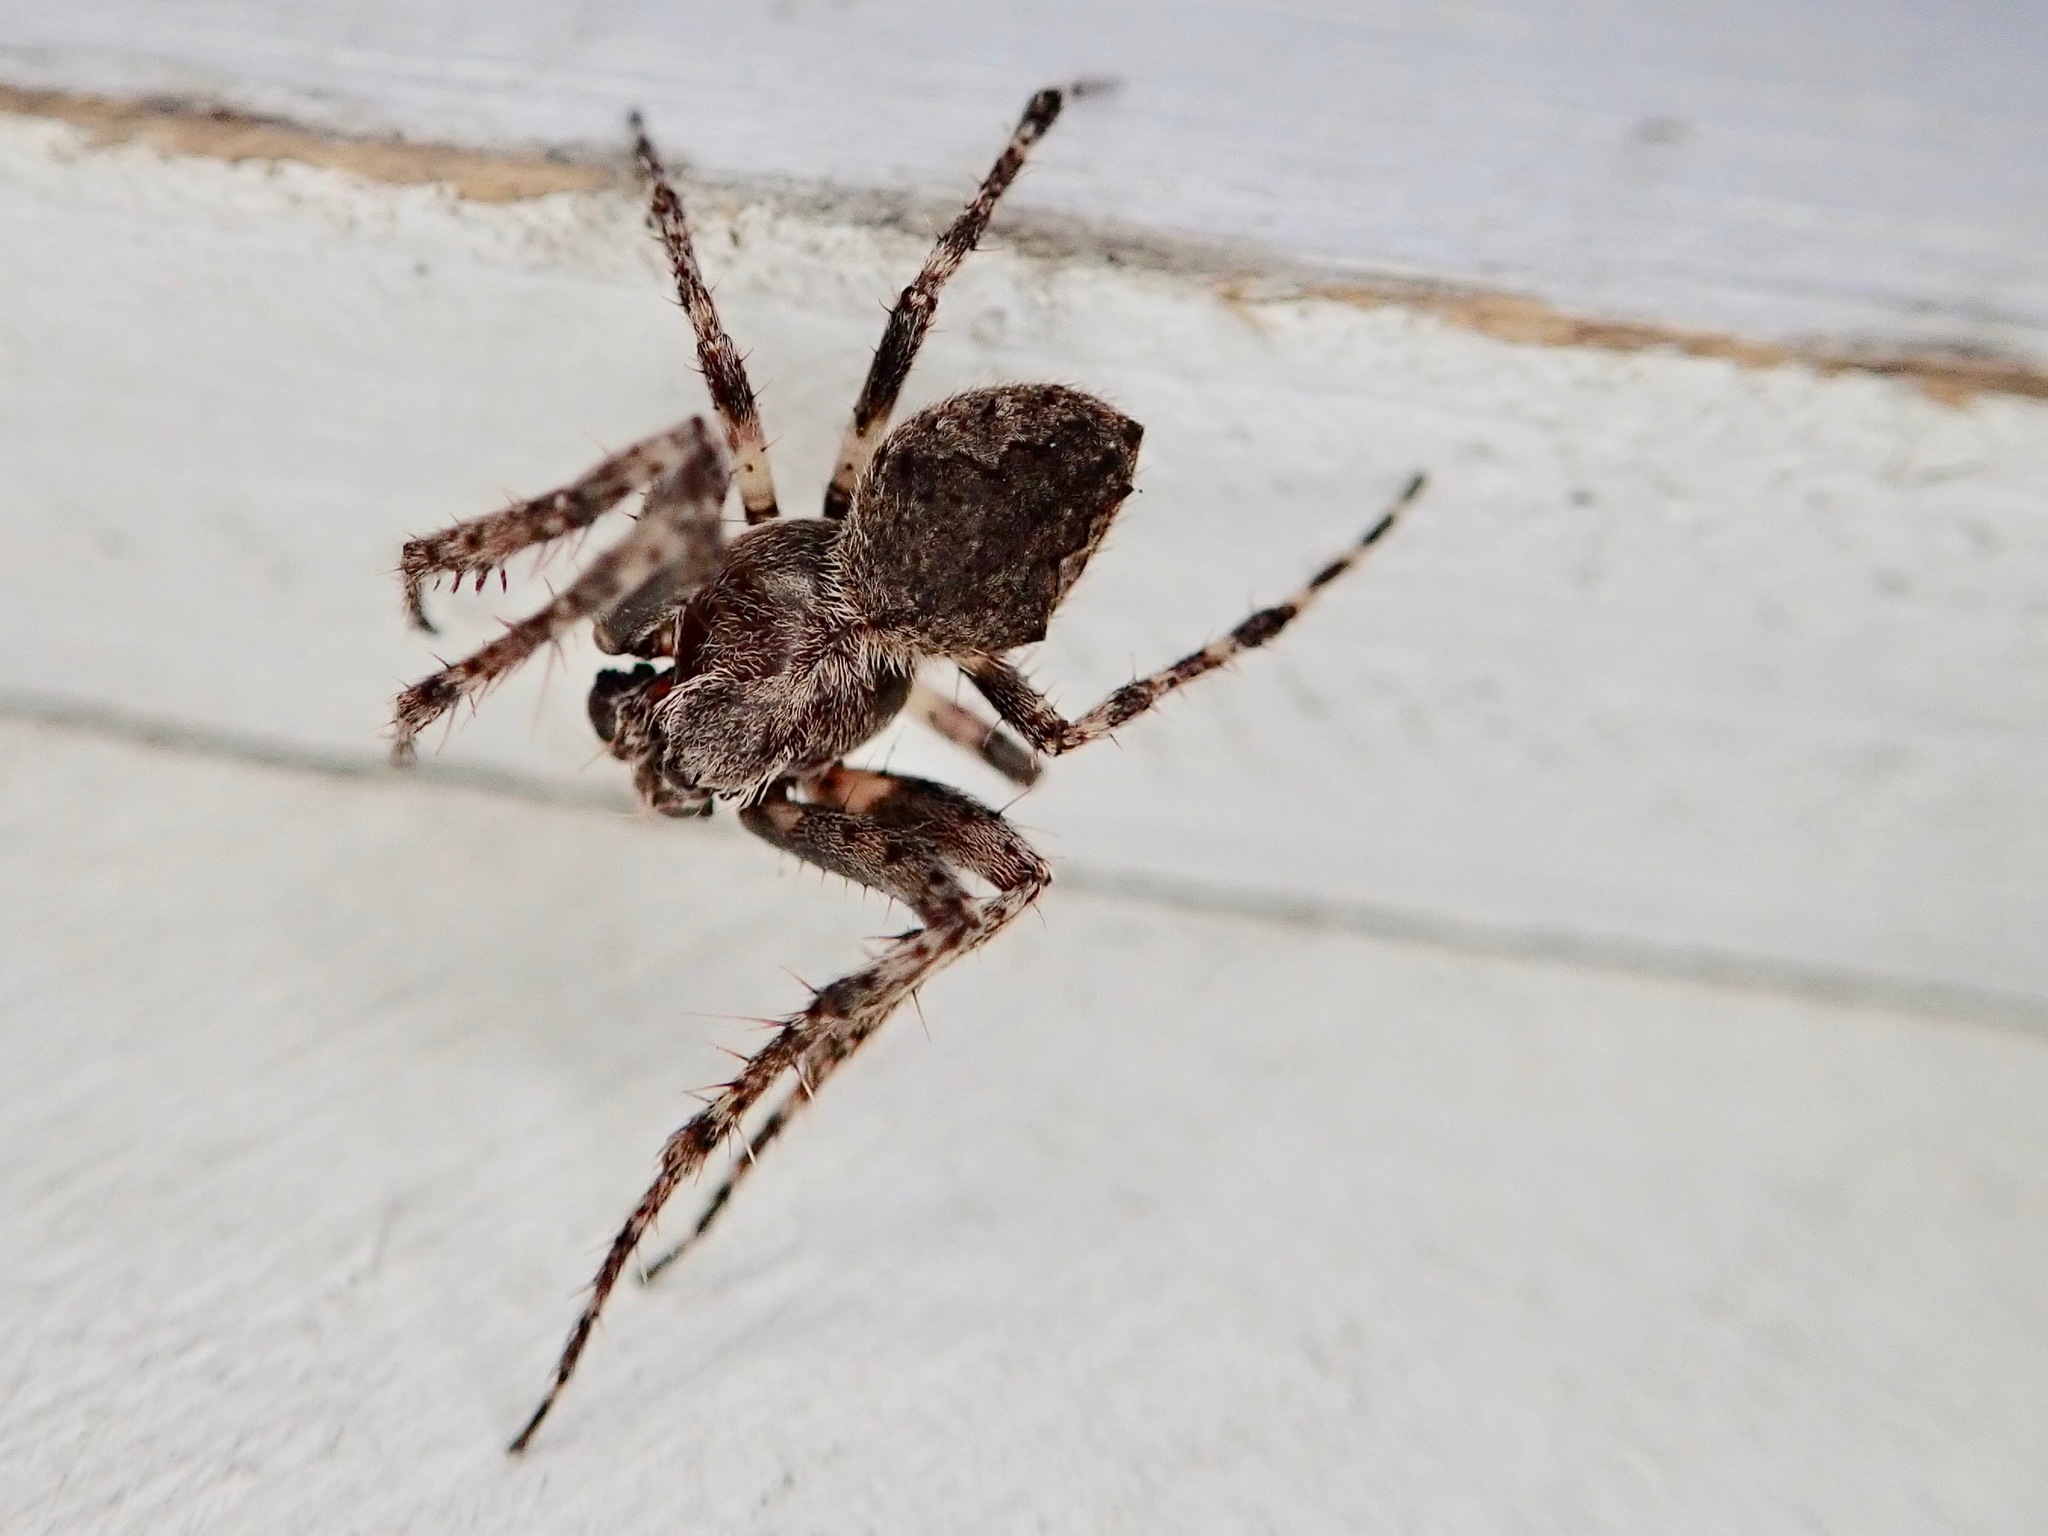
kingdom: Animalia
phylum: Arthropoda
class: Arachnida
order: Araneae
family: Araneidae
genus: Eriophora
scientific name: Eriophora pustulosa
